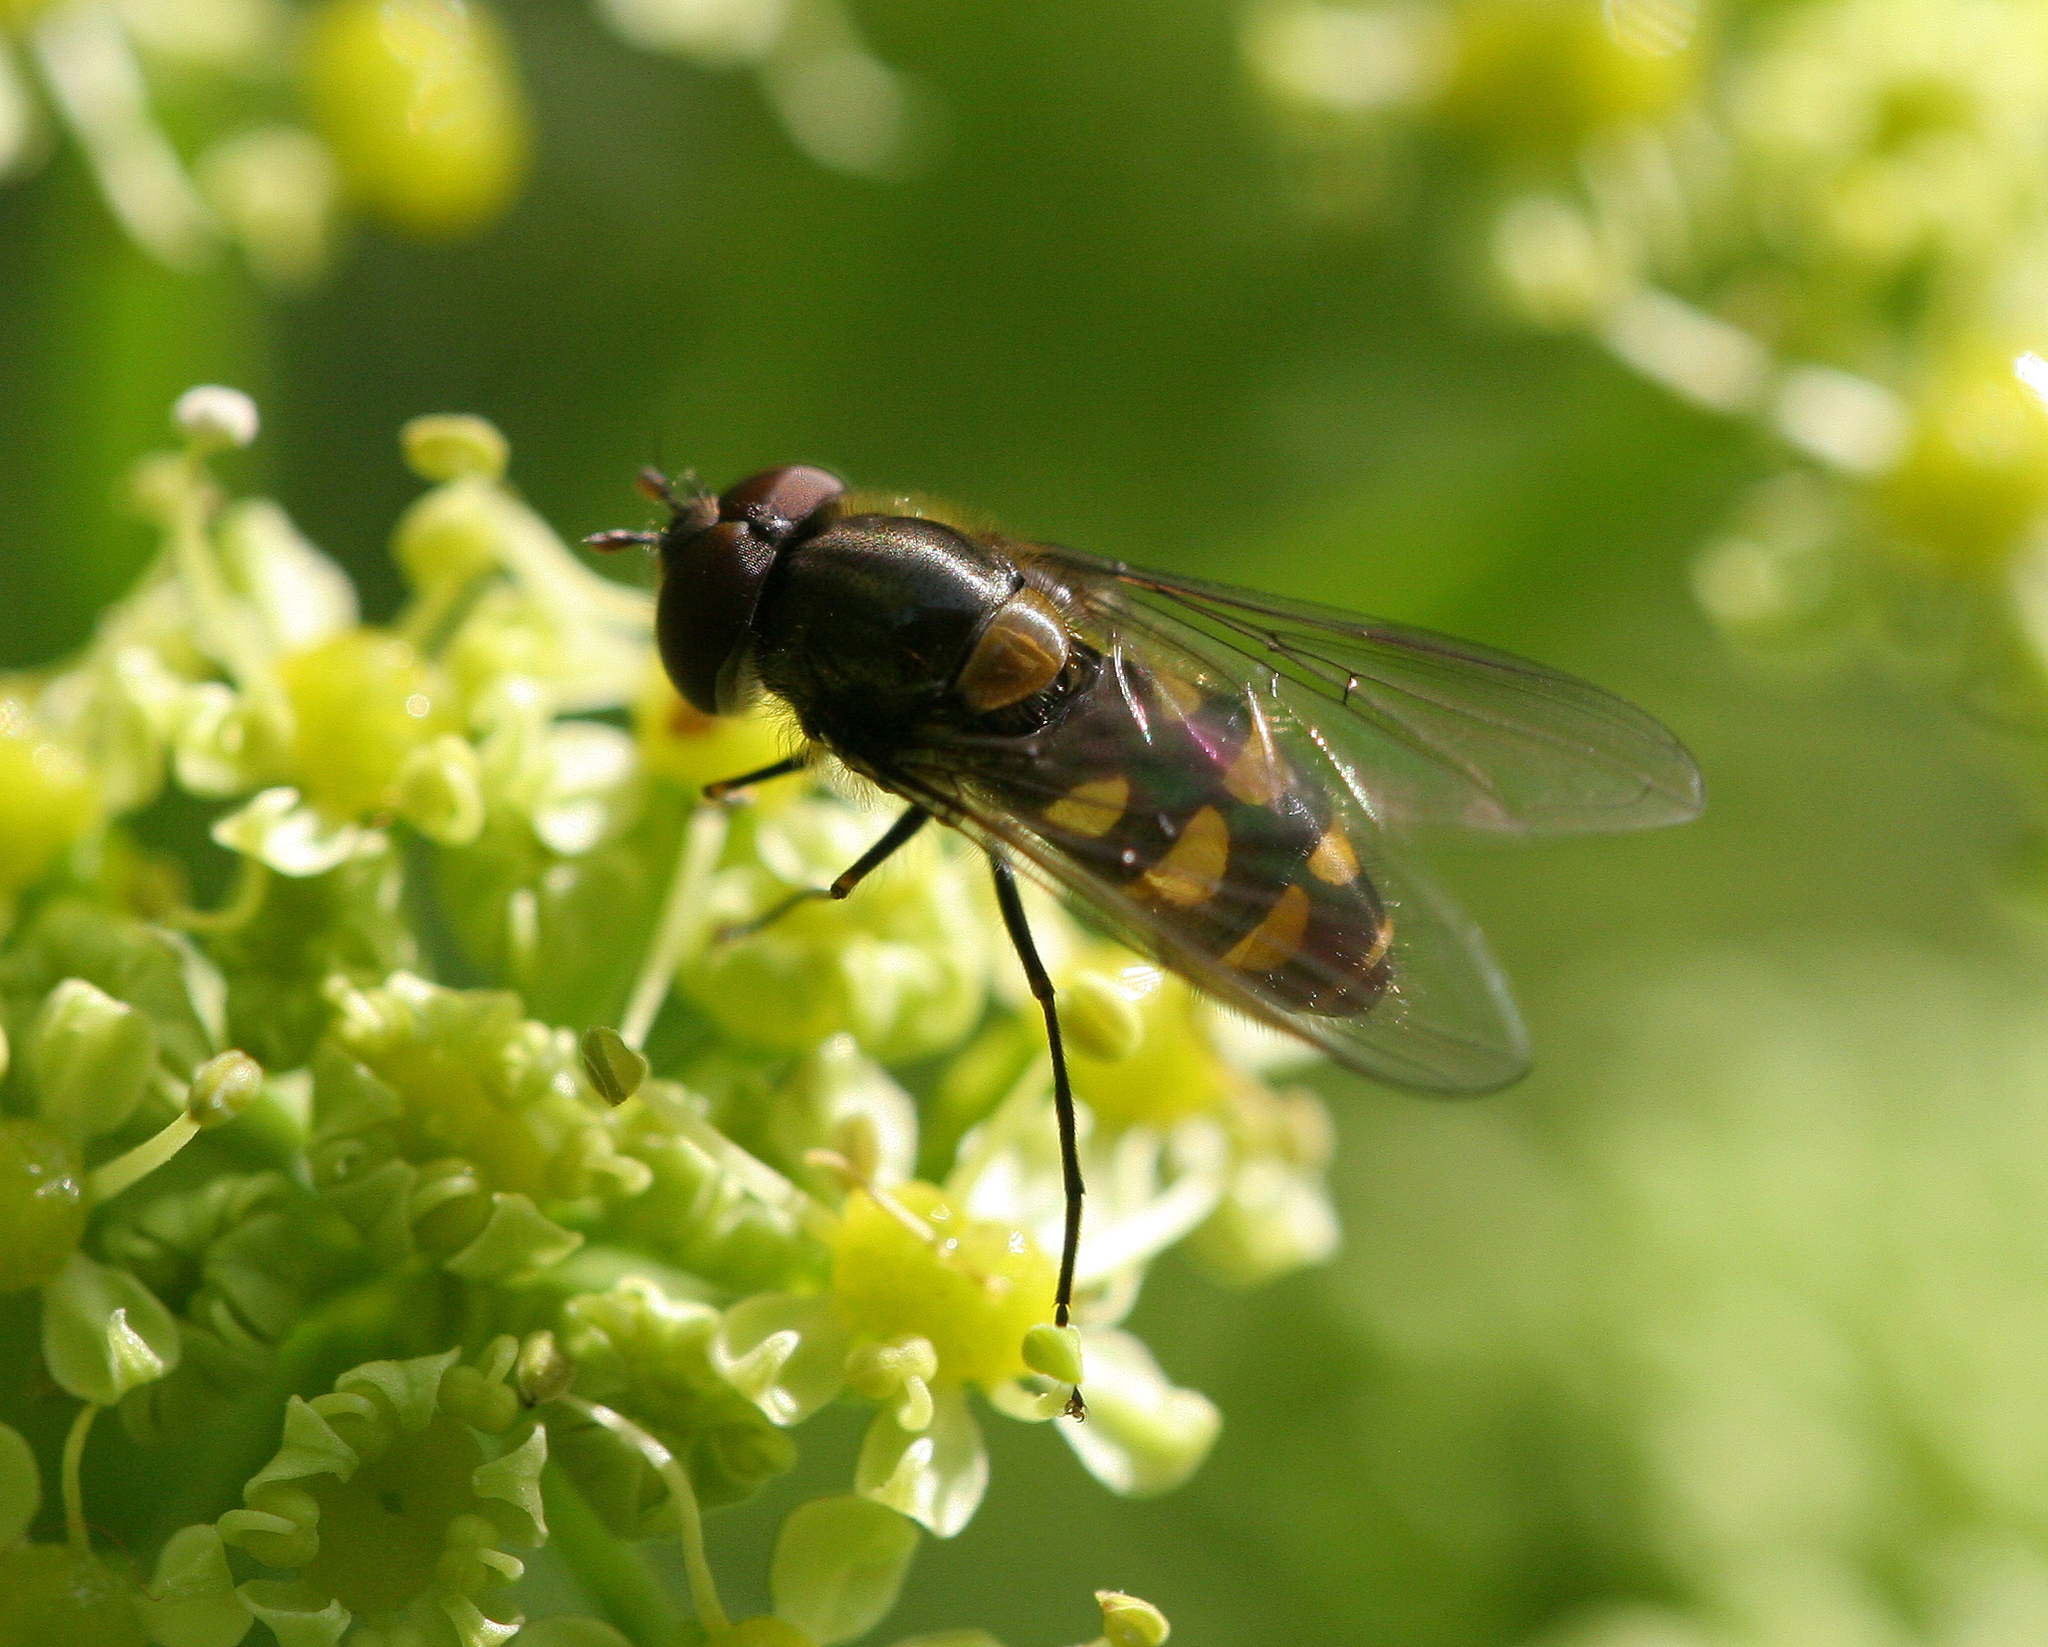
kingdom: Animalia
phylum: Arthropoda
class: Insecta
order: Diptera
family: Syrphidae
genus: Parasyrphus
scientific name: Parasyrphus punctulatus
